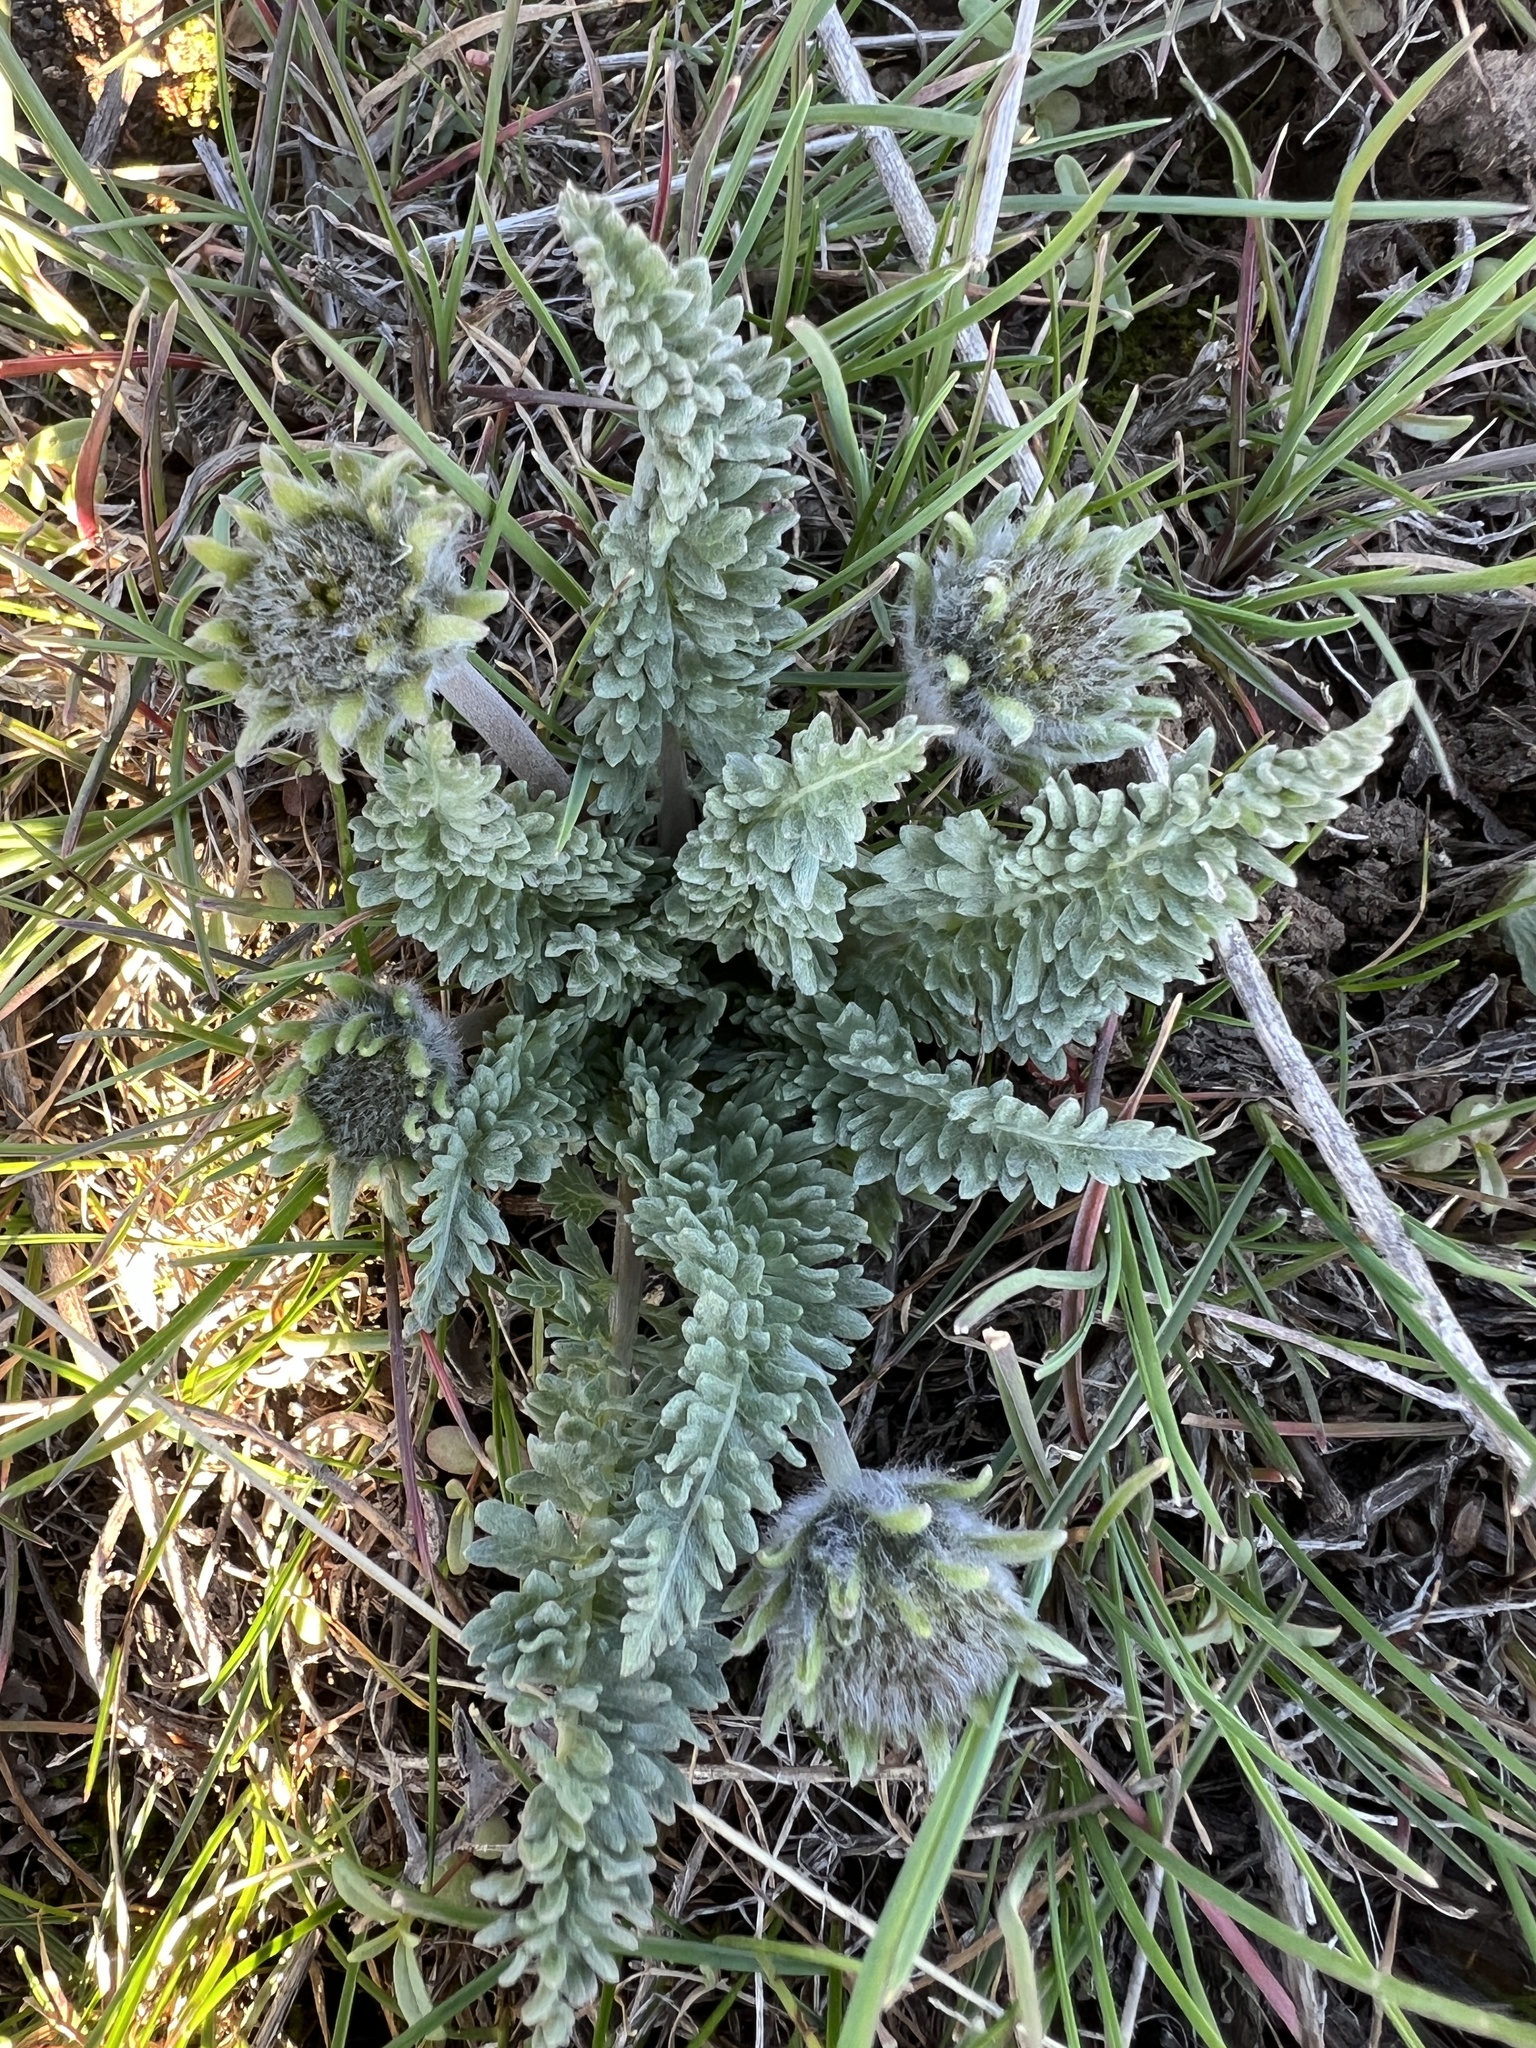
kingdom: Plantae
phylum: Tracheophyta
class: Magnoliopsida
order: Asterales
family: Asteraceae
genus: Balsamorhiza
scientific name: Balsamorhiza hookeri
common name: Hooker's balsamroot
